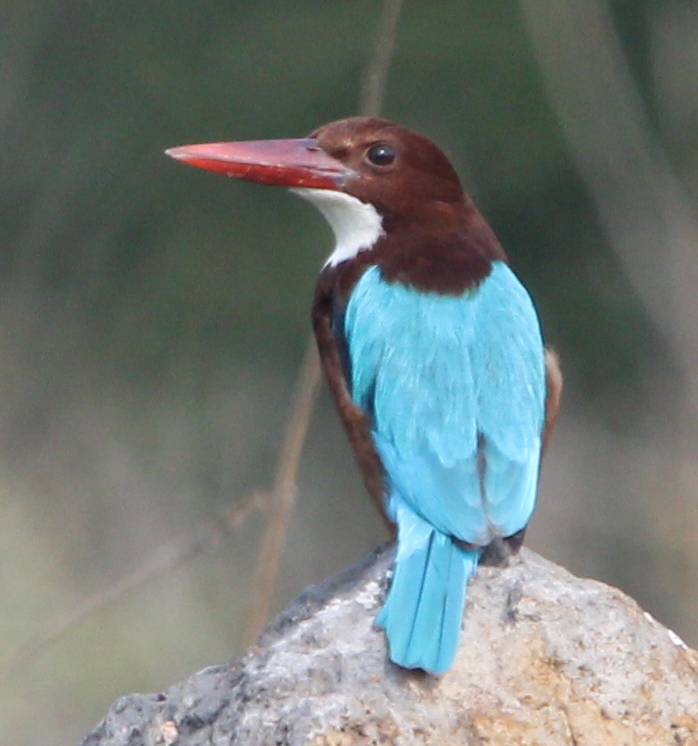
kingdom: Animalia
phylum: Chordata
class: Aves
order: Coraciiformes
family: Alcedinidae
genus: Halcyon
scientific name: Halcyon smyrnensis
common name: White-throated kingfisher
